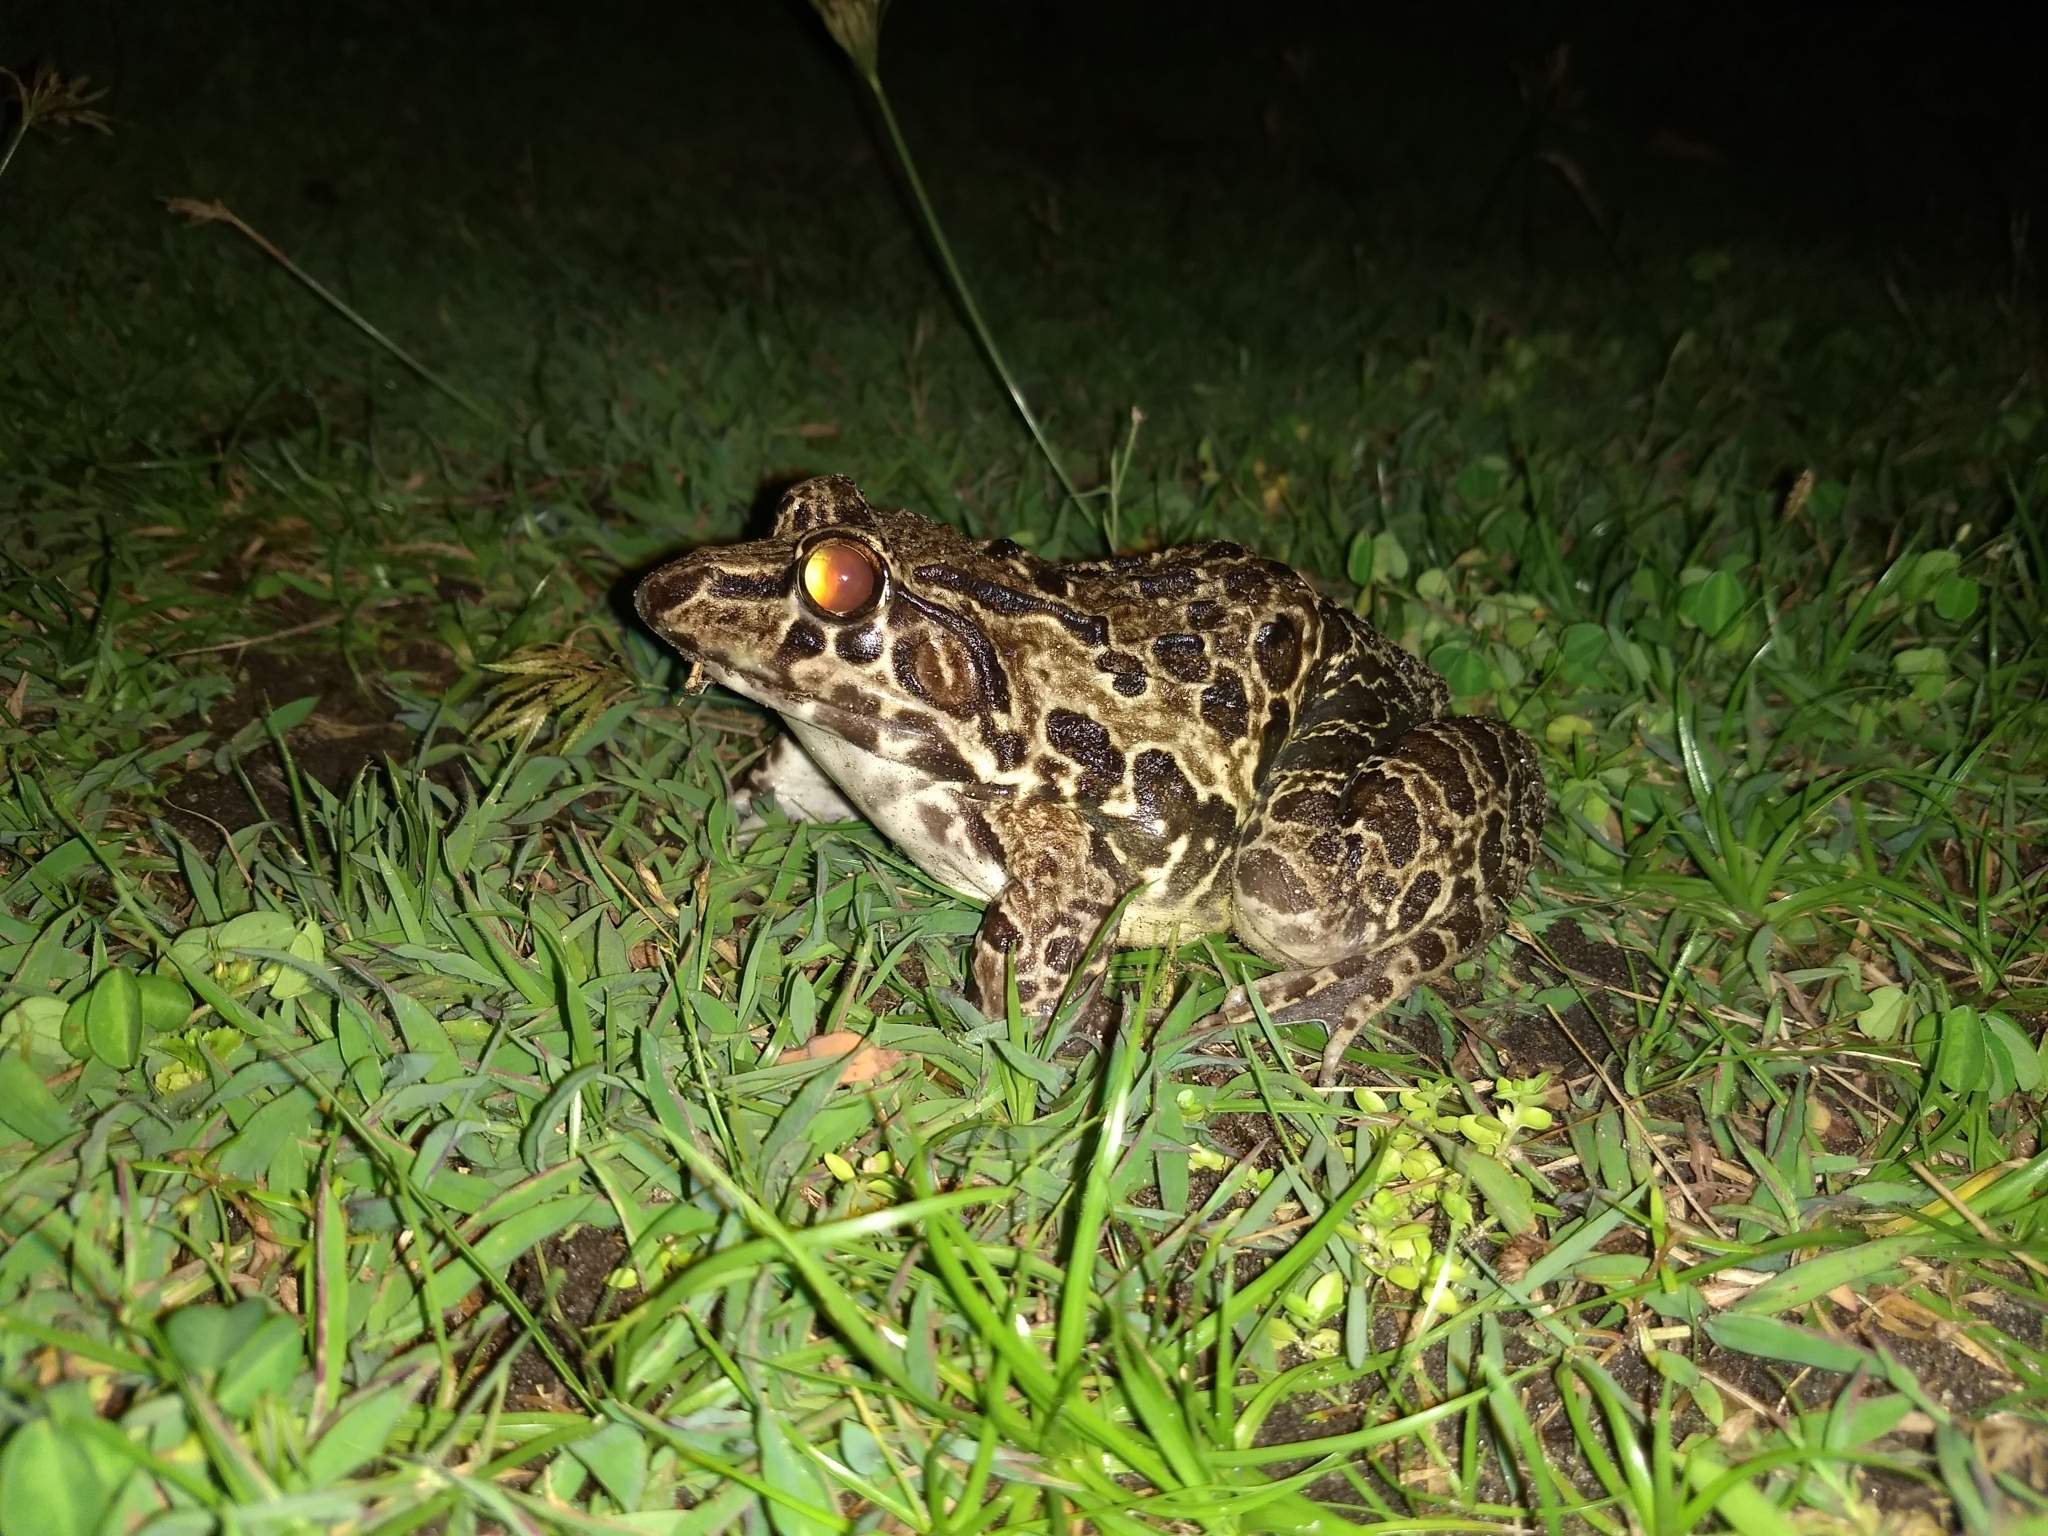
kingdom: Animalia
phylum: Chordata
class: Amphibia
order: Anura
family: Dicroglossidae
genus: Hoplobatrachus
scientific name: Hoplobatrachus tigerinus
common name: Indian bullfrog
